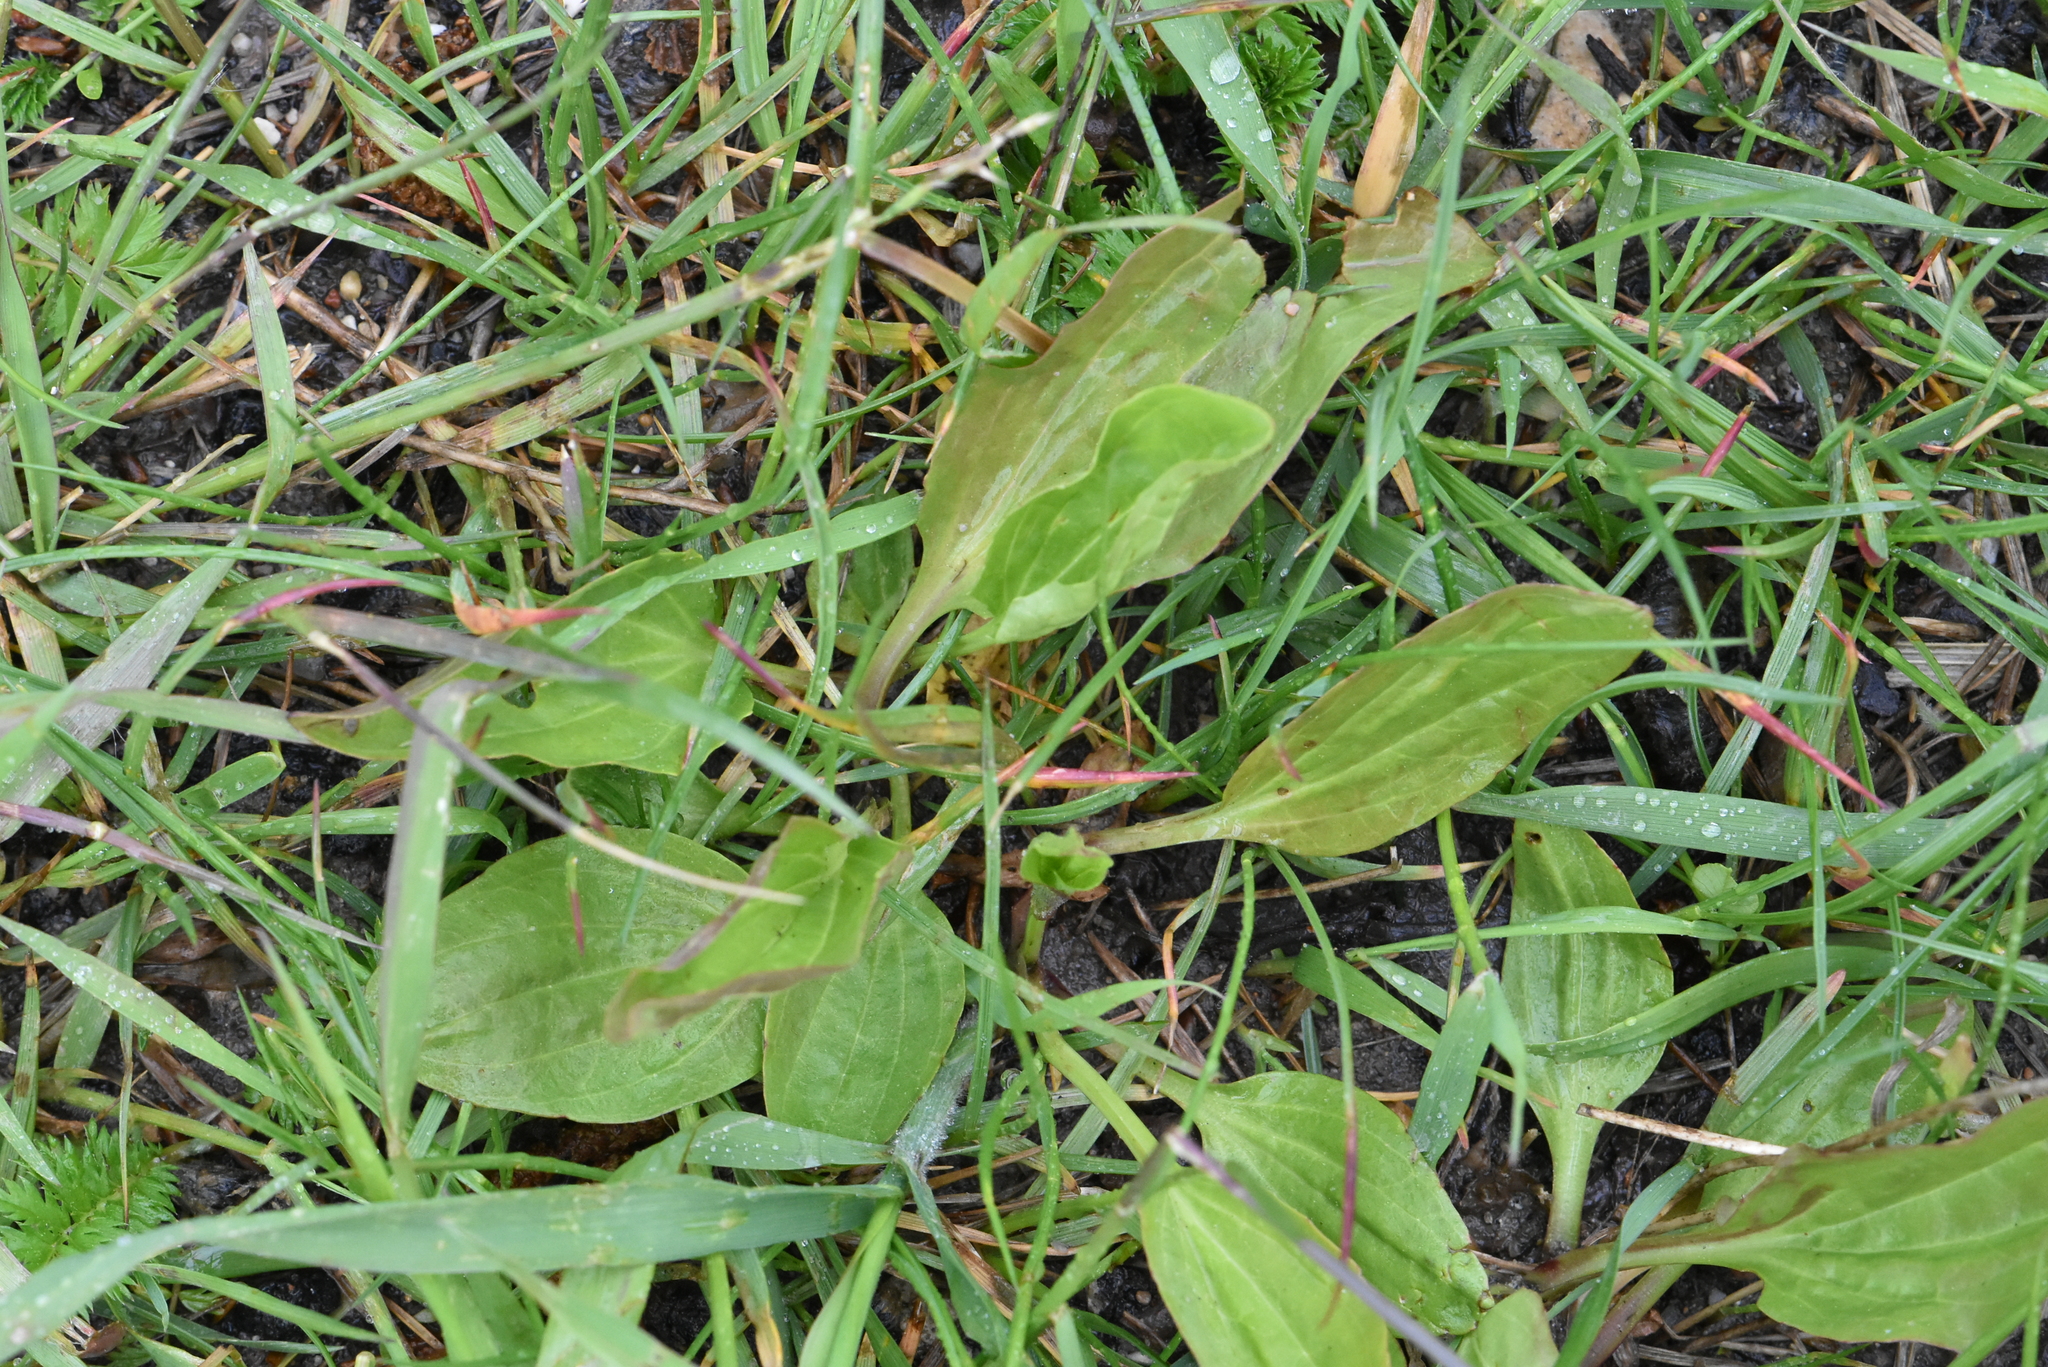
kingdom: Plantae
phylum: Tracheophyta
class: Magnoliopsida
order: Lamiales
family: Plantaginaceae
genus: Plantago
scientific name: Plantago major
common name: Common plantain
